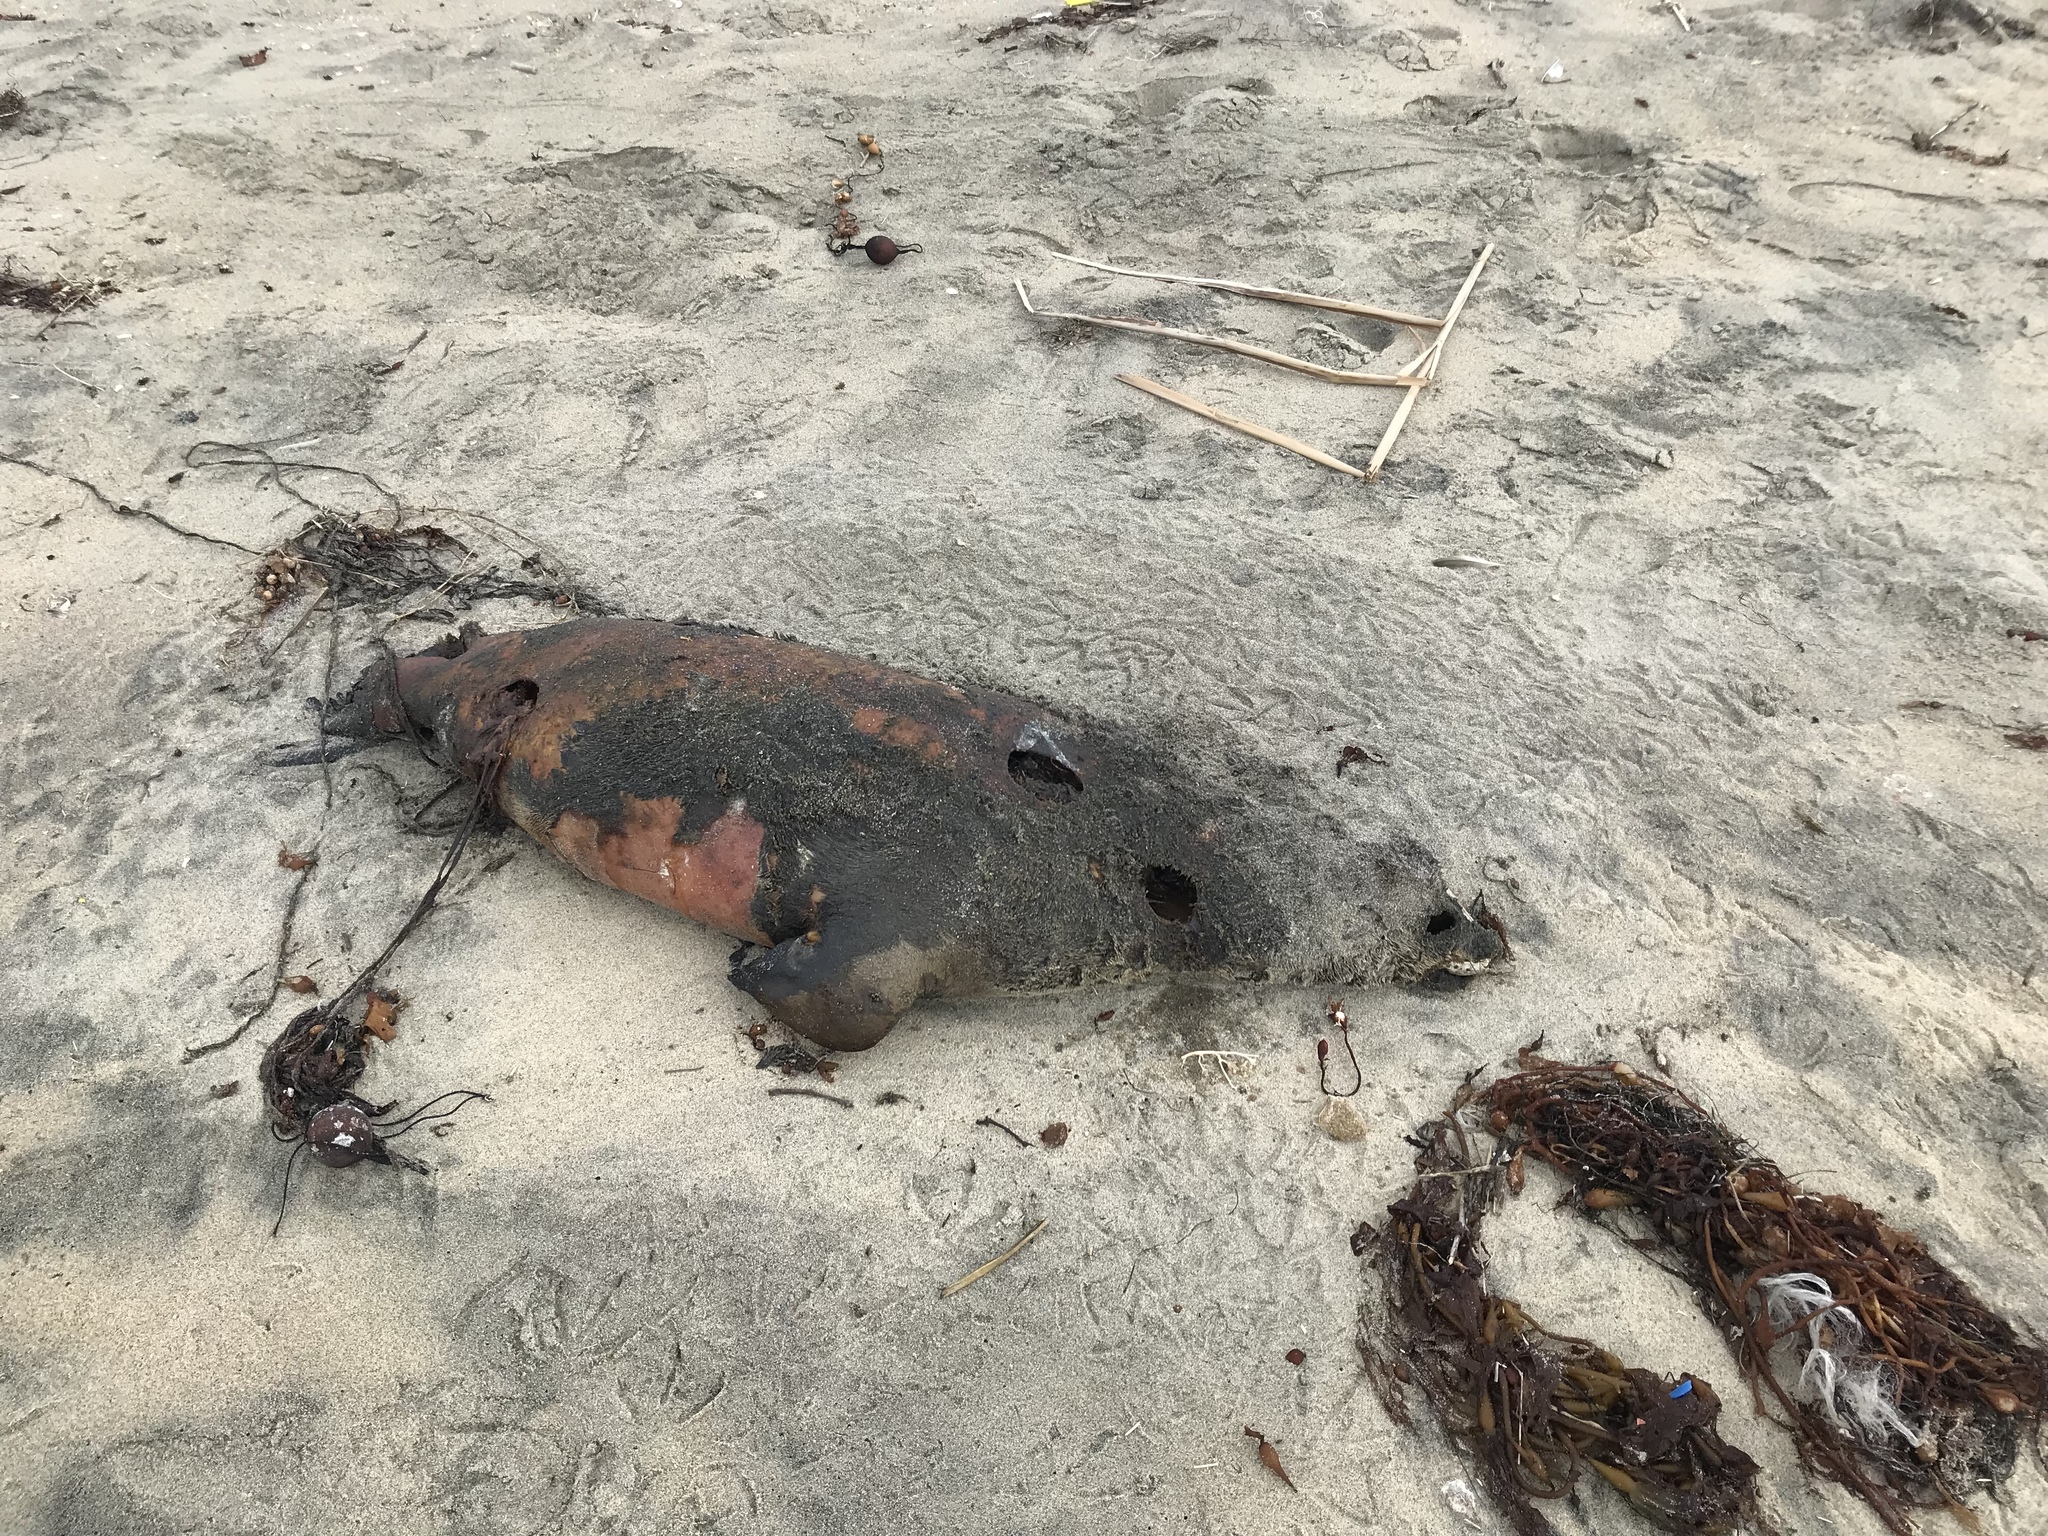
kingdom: Animalia
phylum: Chordata
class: Mammalia
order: Carnivora
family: Otariidae
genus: Zalophus
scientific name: Zalophus californianus
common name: California sea lion
